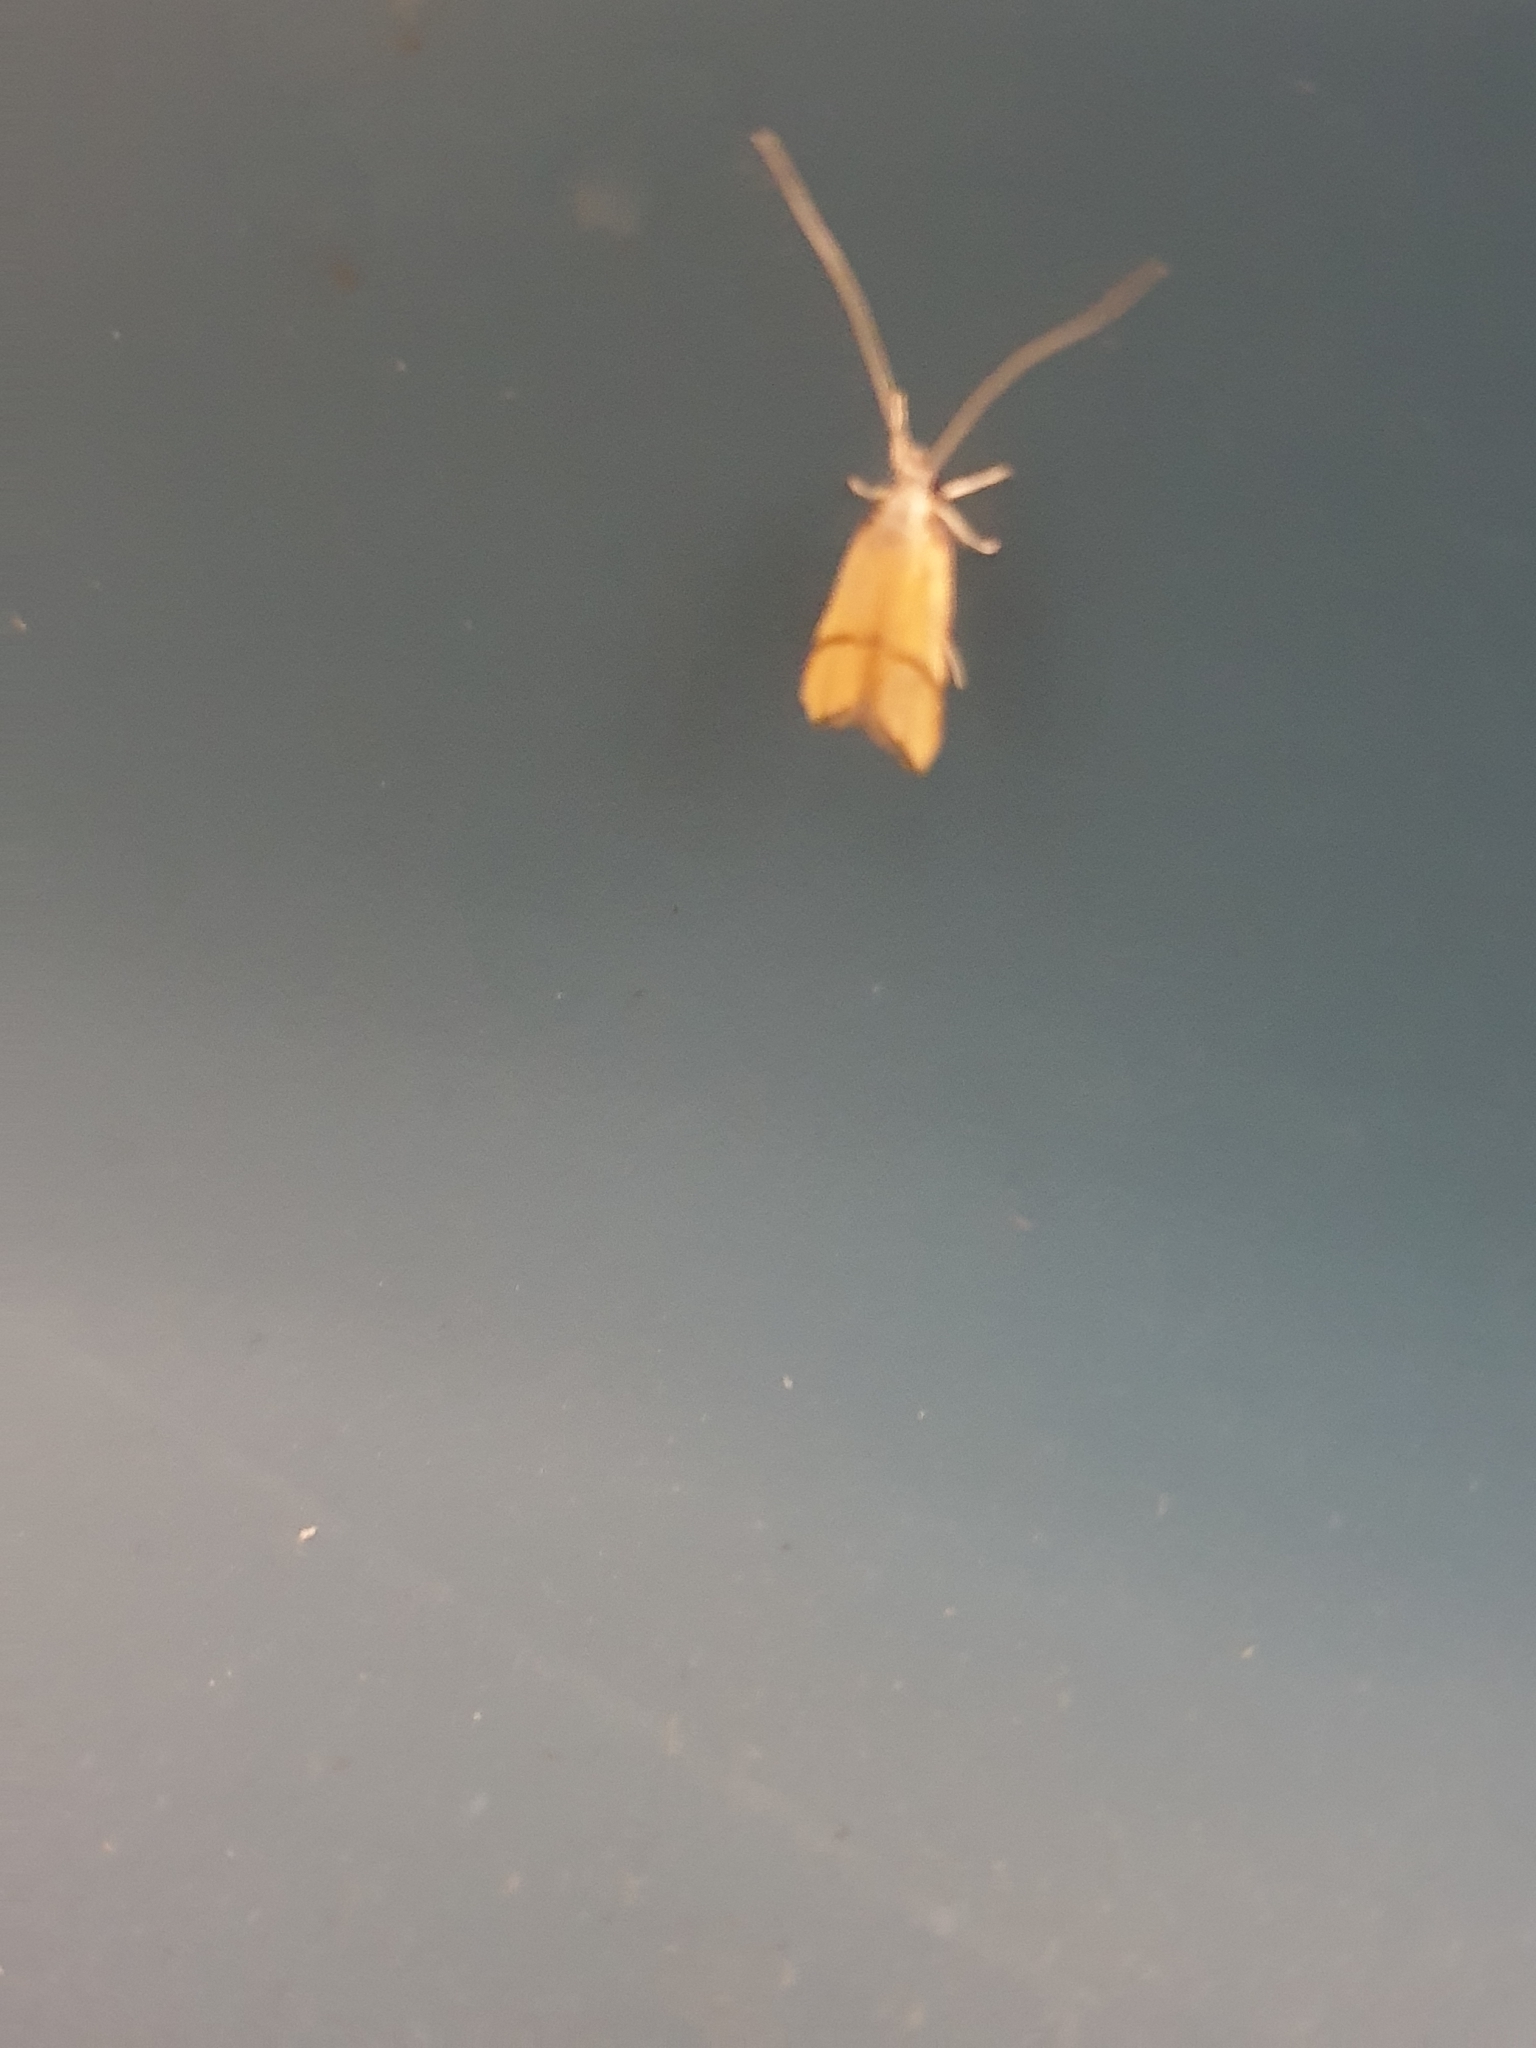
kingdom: Animalia
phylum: Arthropoda
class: Insecta
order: Lepidoptera
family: Lecithoceridae
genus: Crocanthes
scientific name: Crocanthes perigrapta
